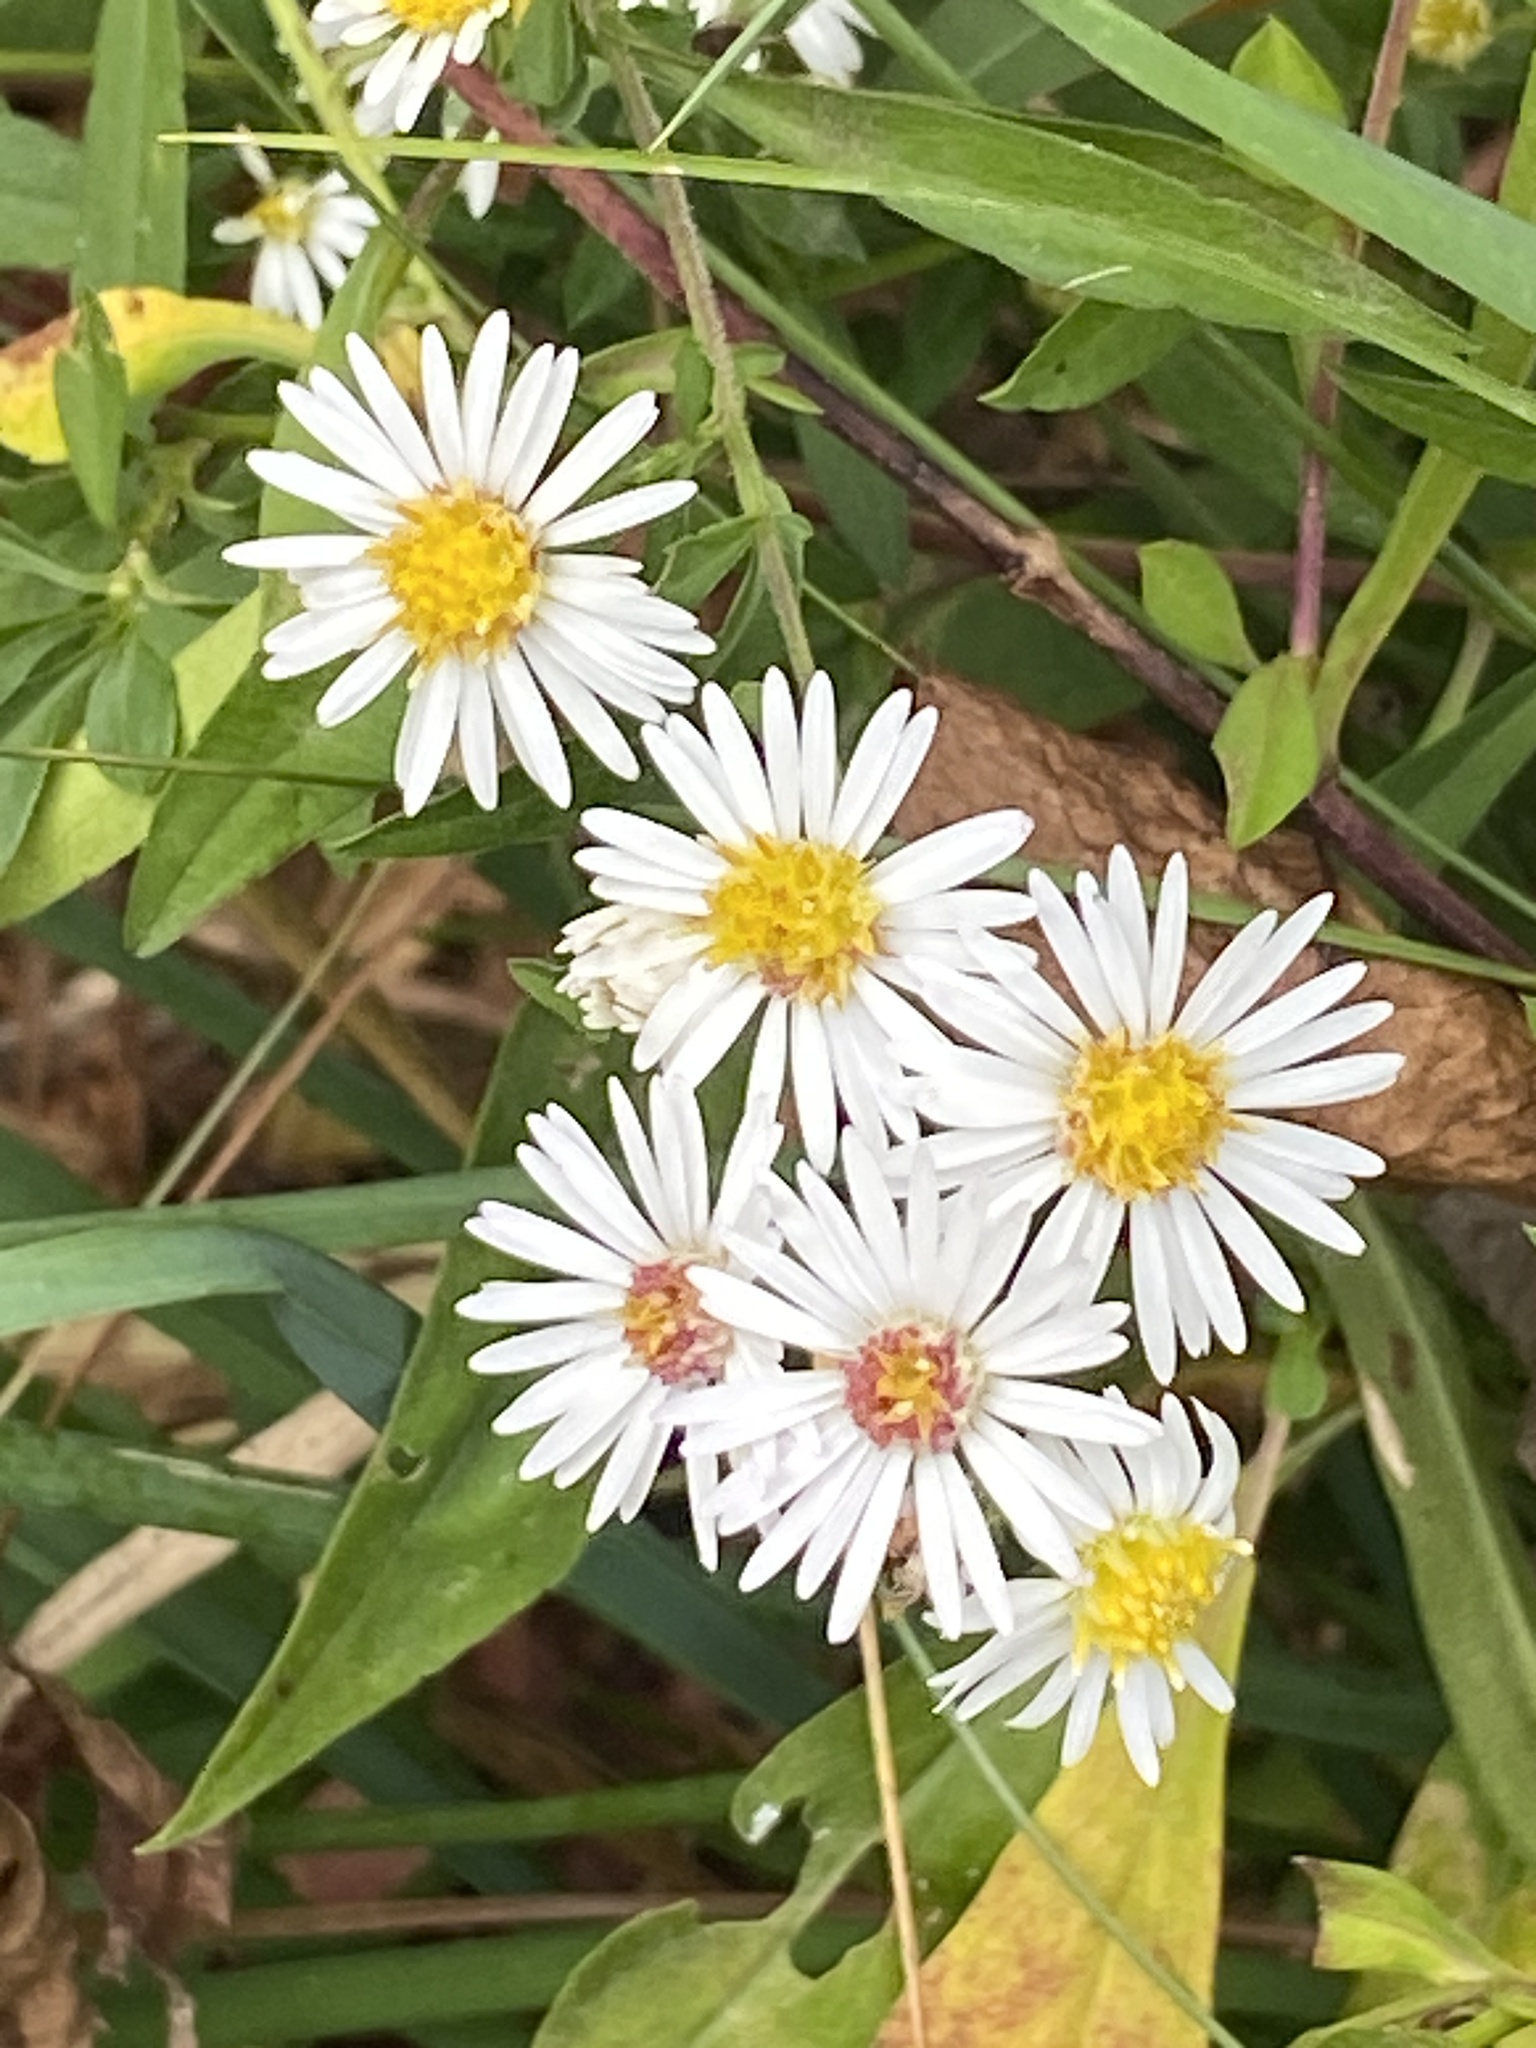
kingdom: Plantae
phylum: Tracheophyta
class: Magnoliopsida
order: Asterales
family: Asteraceae
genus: Symphyotrichum
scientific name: Symphyotrichum lanceolatum
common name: Panicled aster
